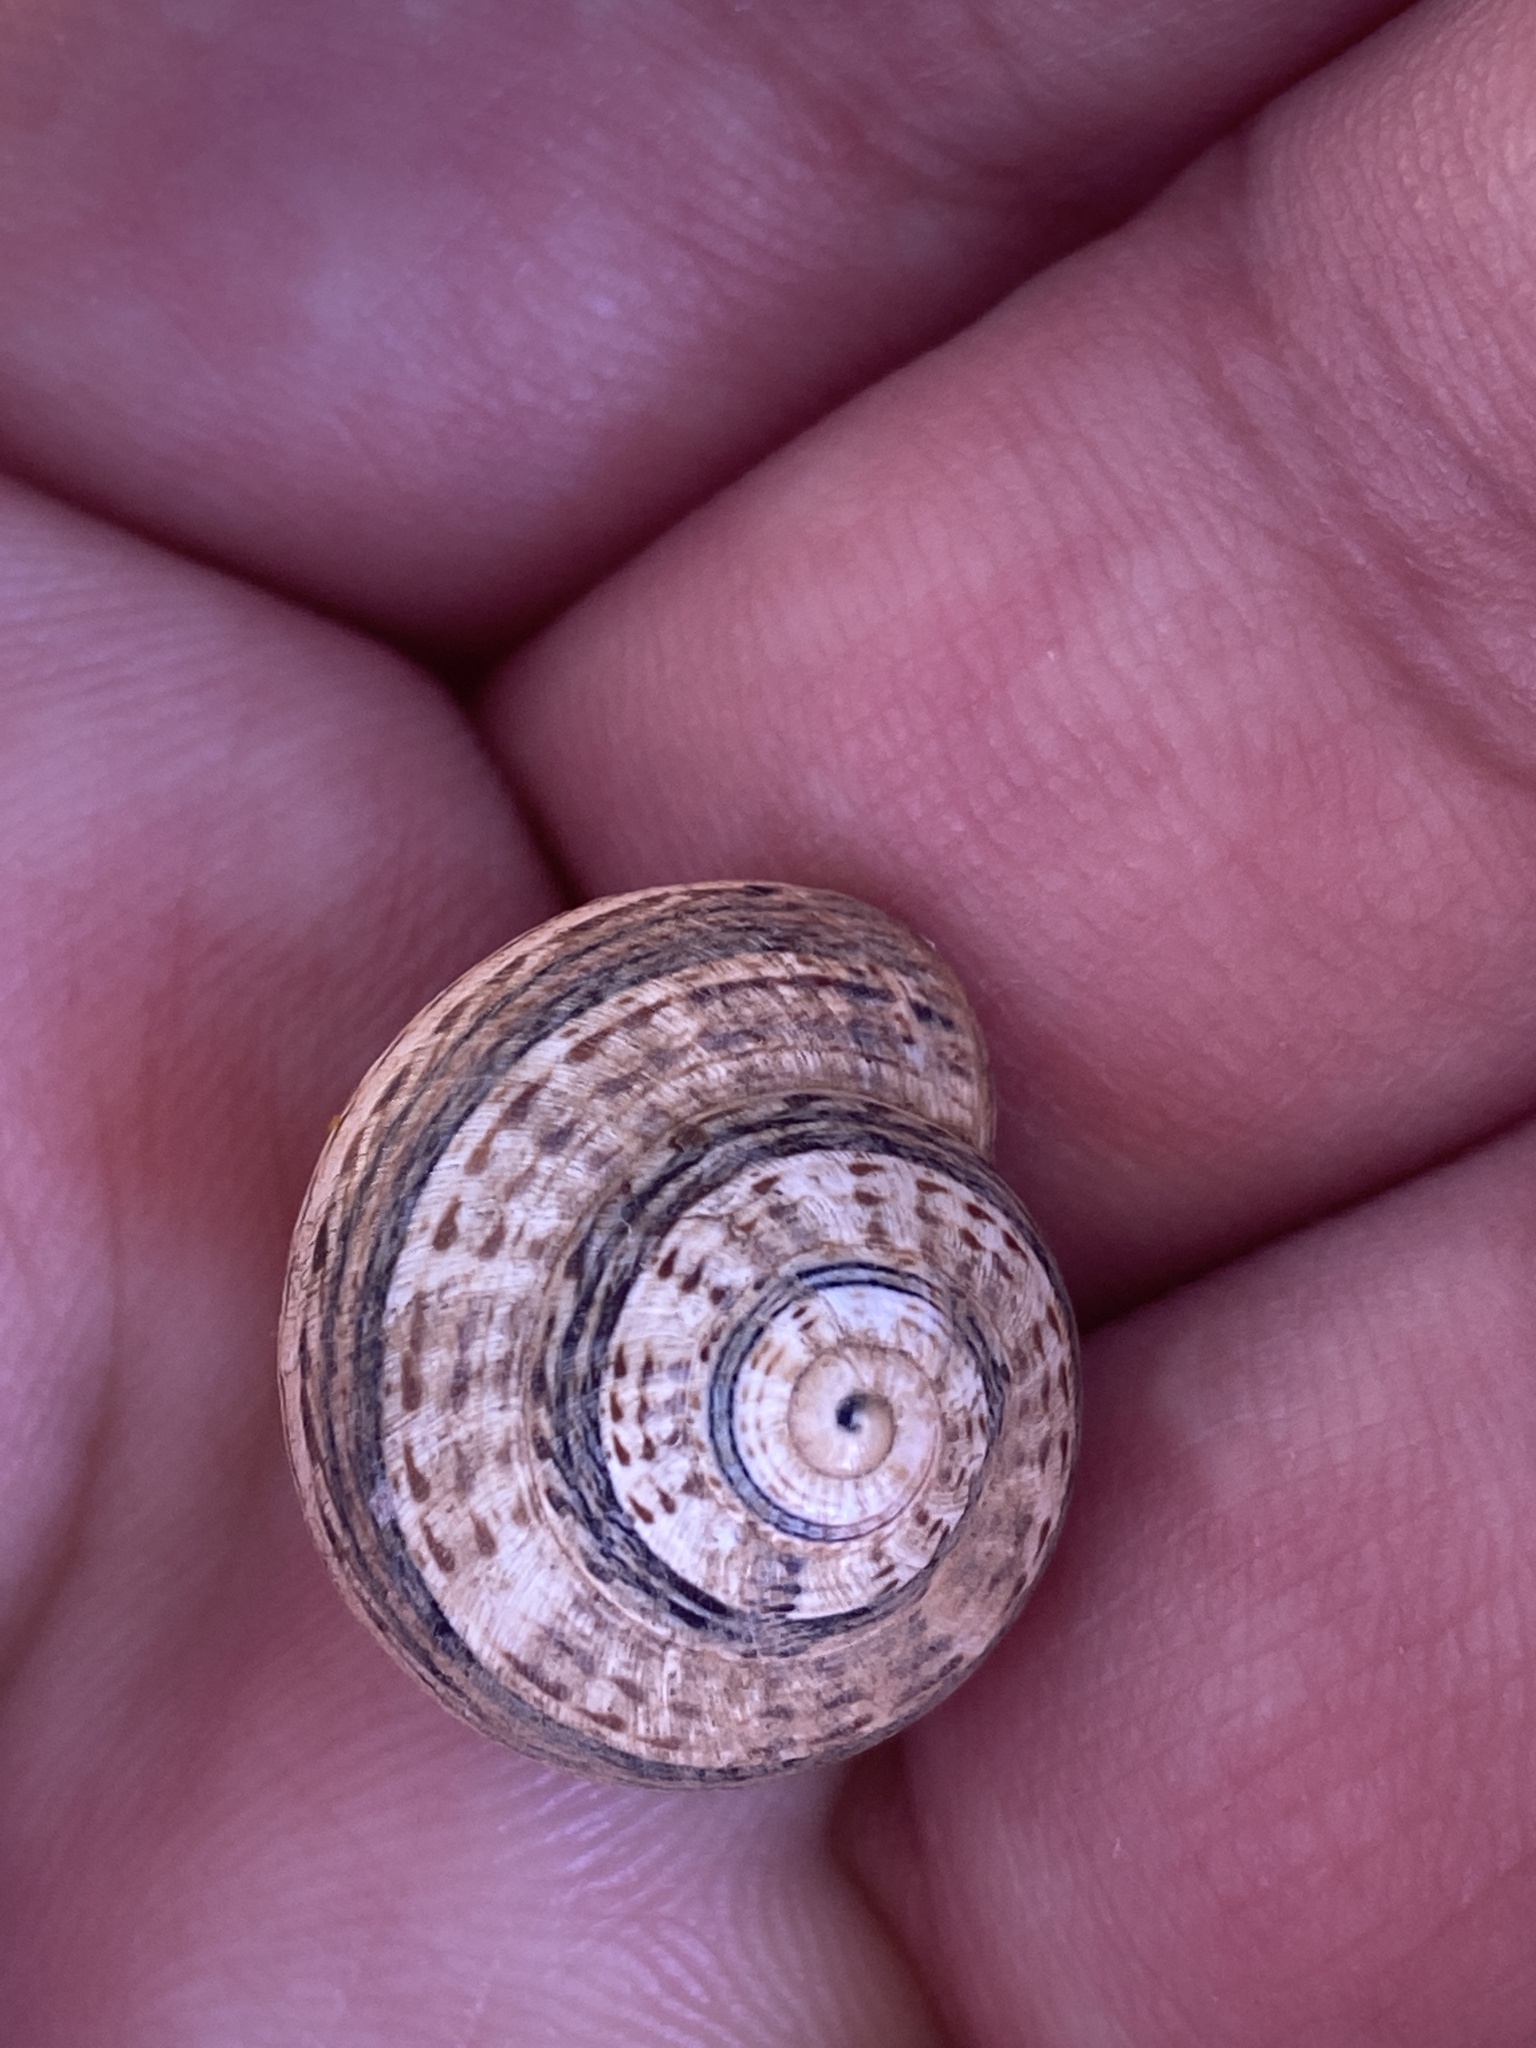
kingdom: Animalia
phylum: Mollusca
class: Gastropoda
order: Stylommatophora
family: Helicidae
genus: Theba
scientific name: Theba geminata
